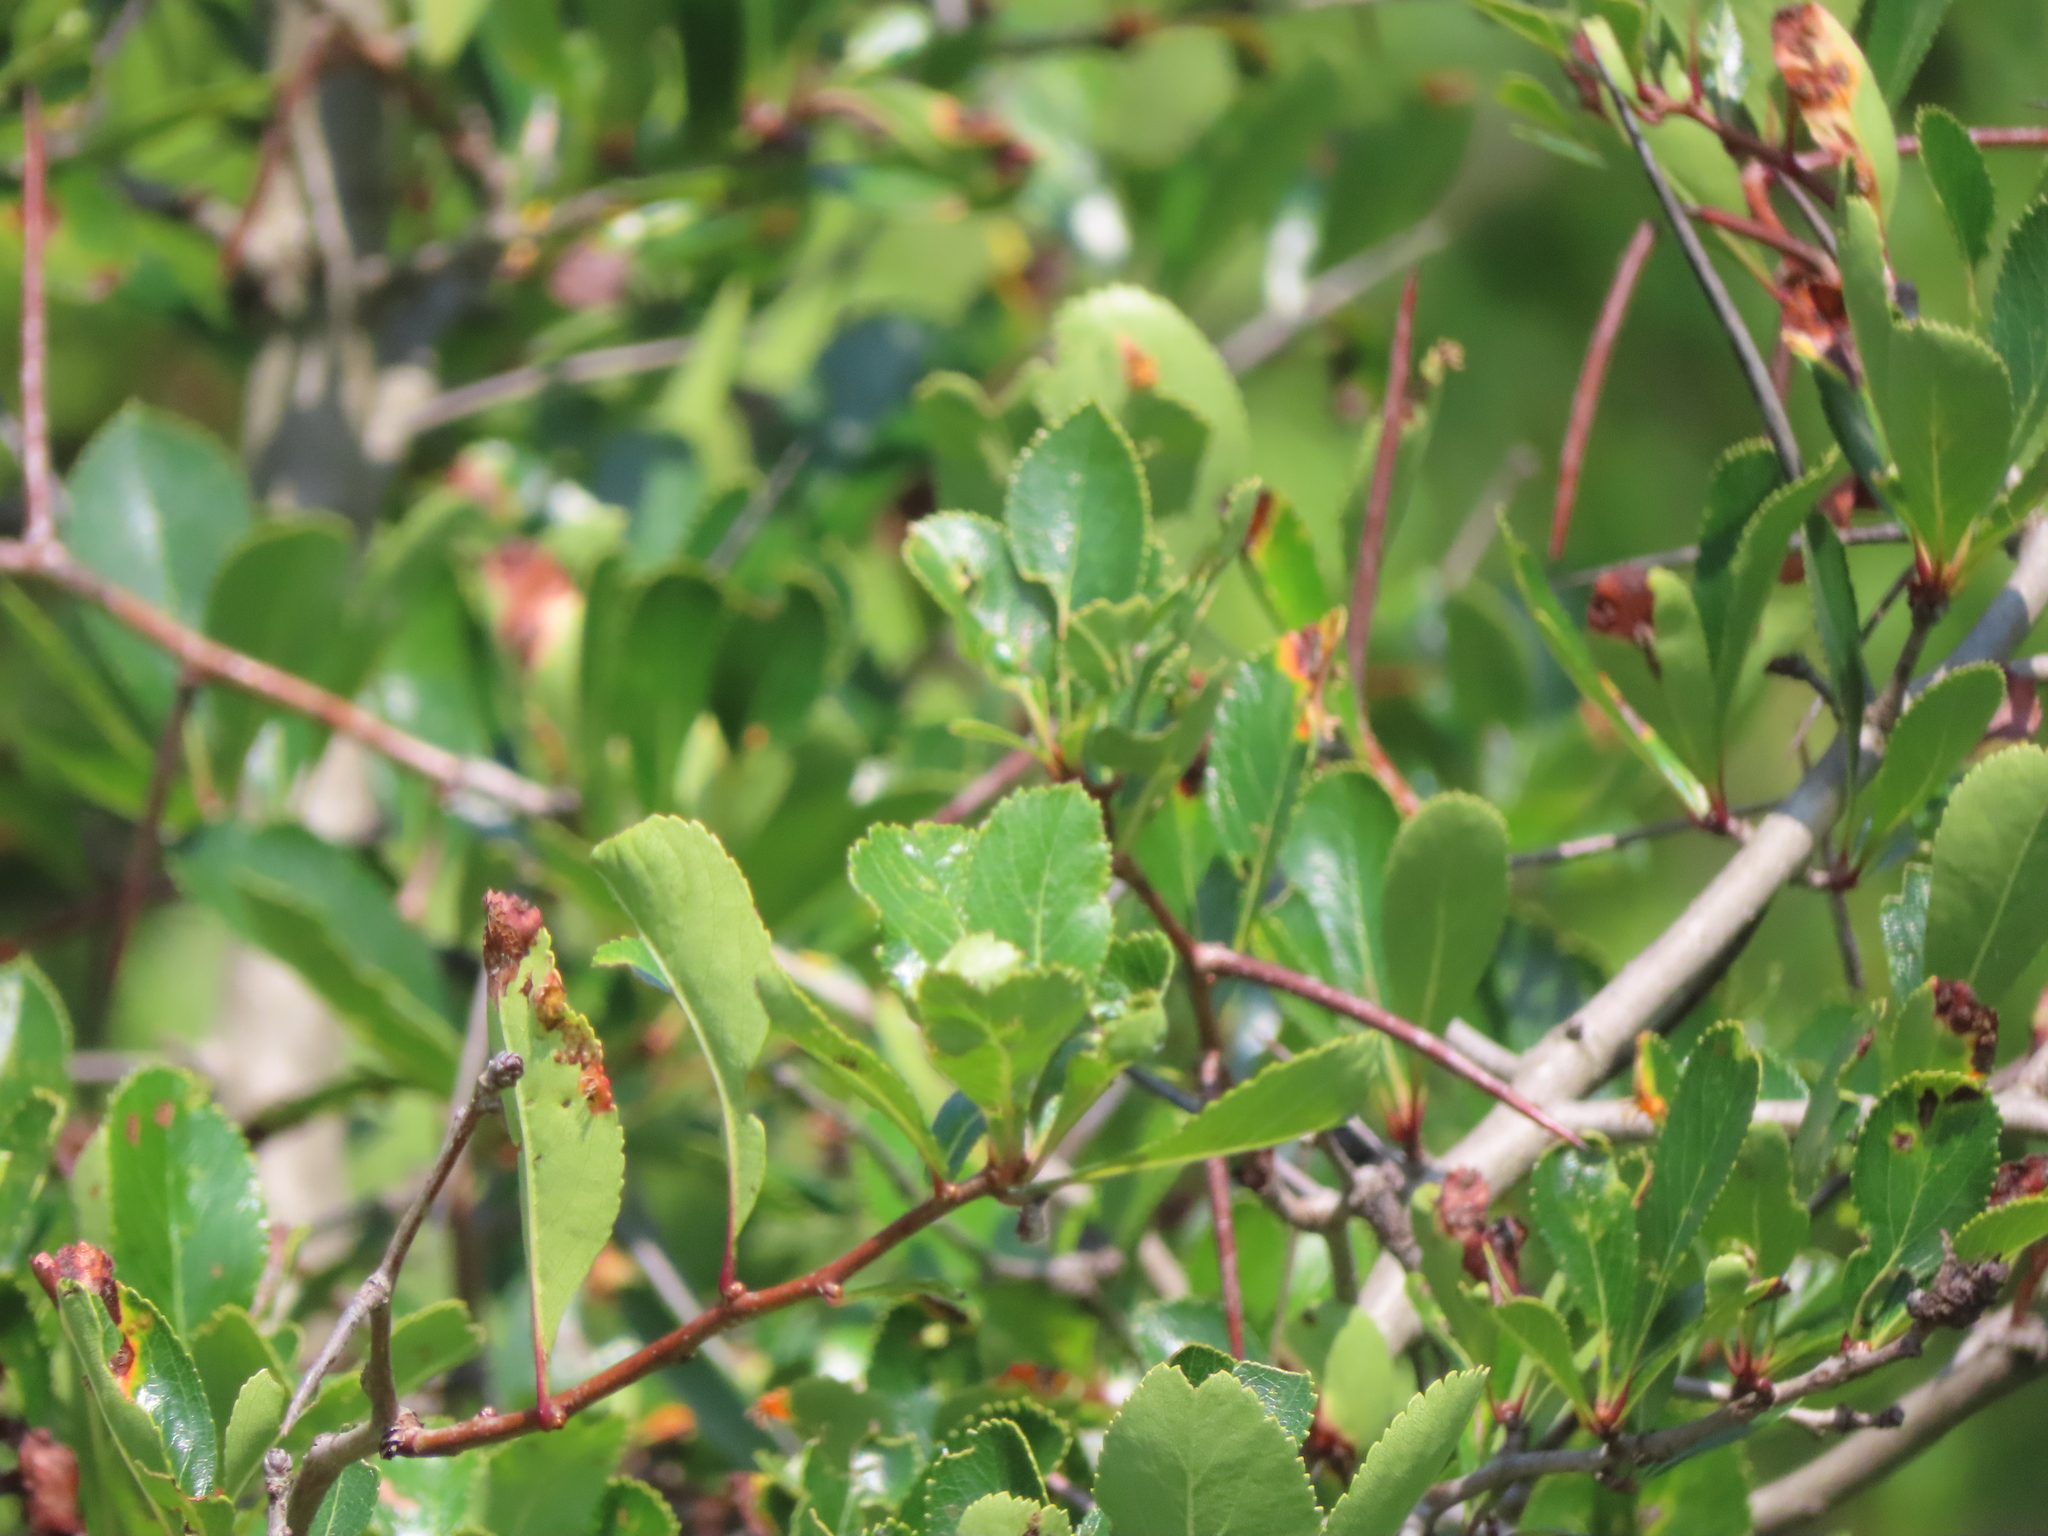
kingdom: Plantae
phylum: Tracheophyta
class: Magnoliopsida
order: Rosales
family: Rosaceae
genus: Crataegus
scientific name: Crataegus crus-galli
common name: Cockspurthorn
